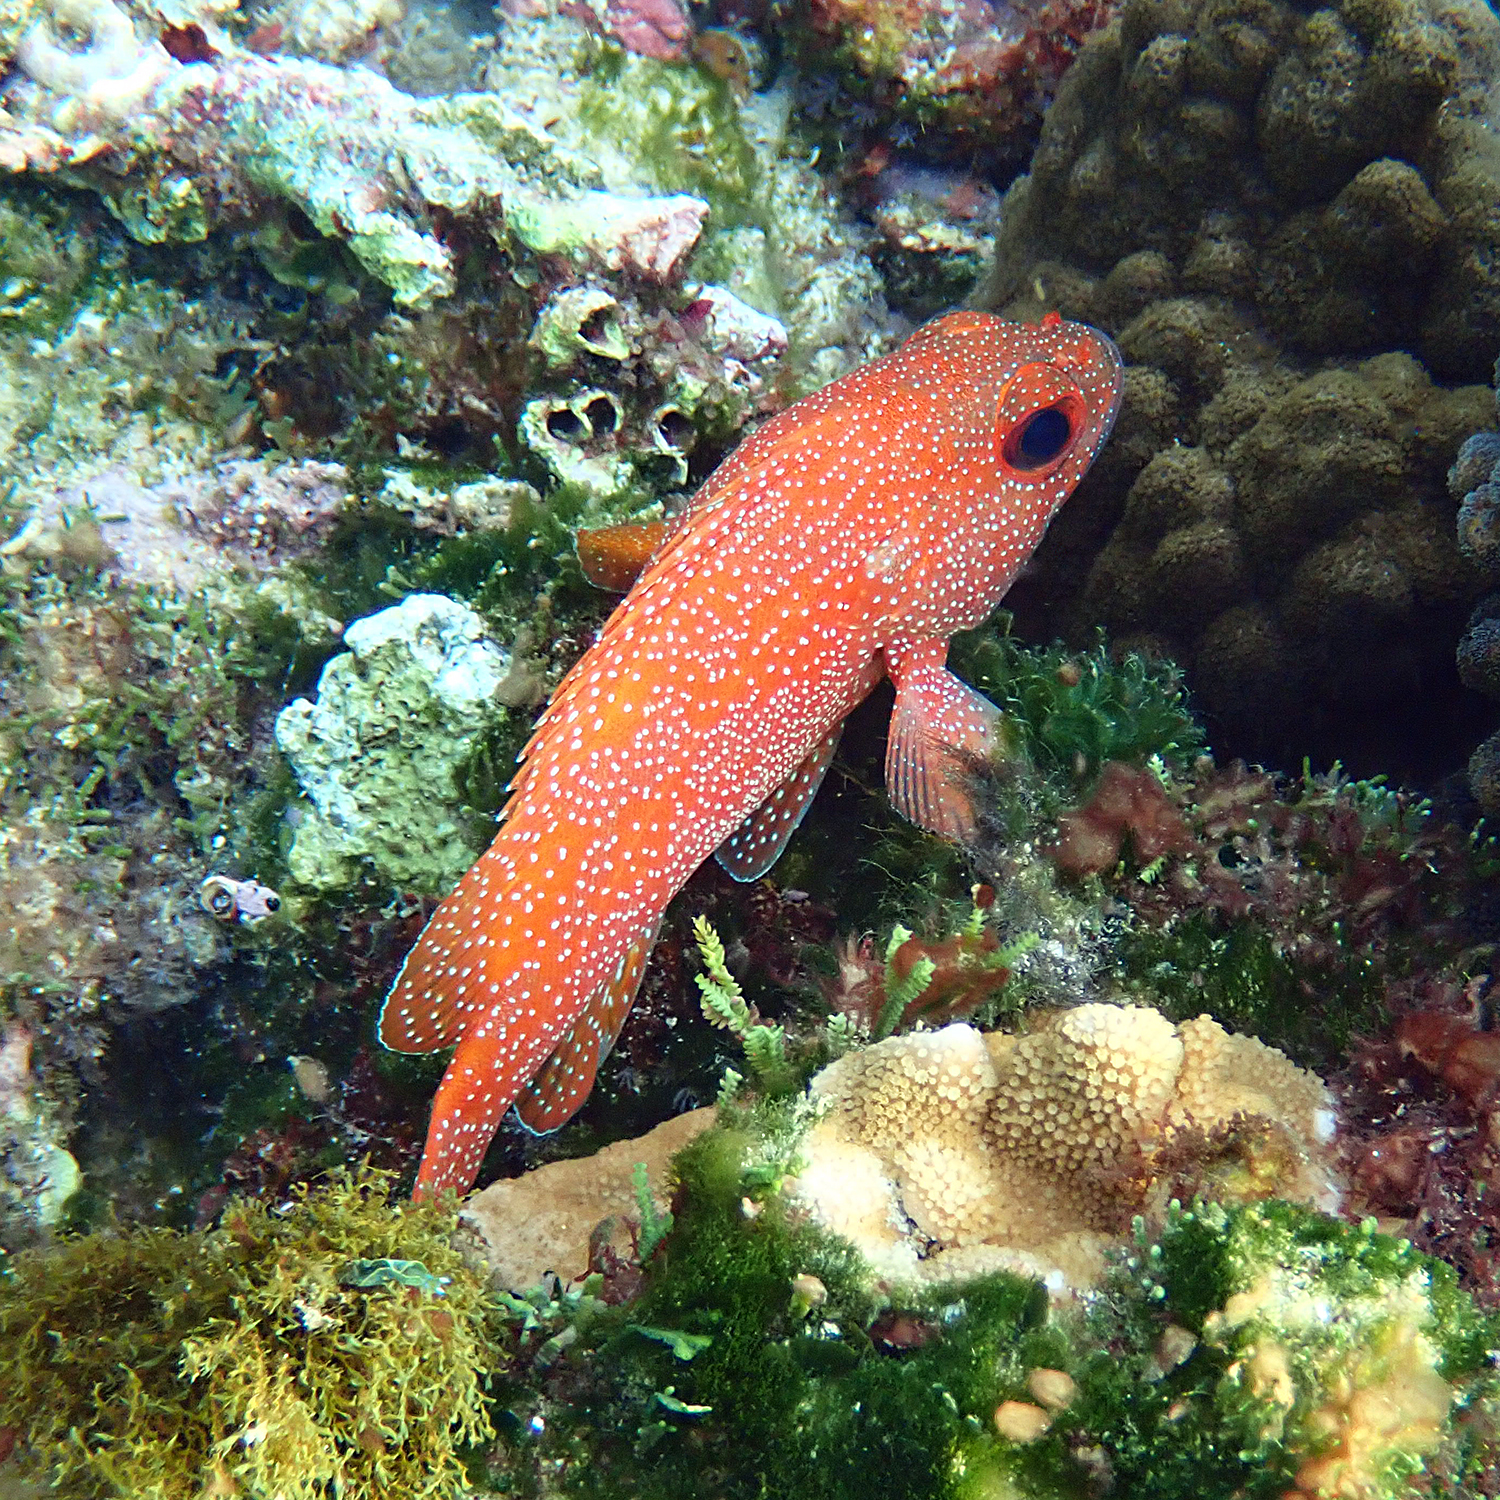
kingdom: Animalia
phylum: Chordata
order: Perciformes
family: Serranidae
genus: Trachypoma
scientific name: Trachypoma macracanthus
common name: Toadstool grouper
